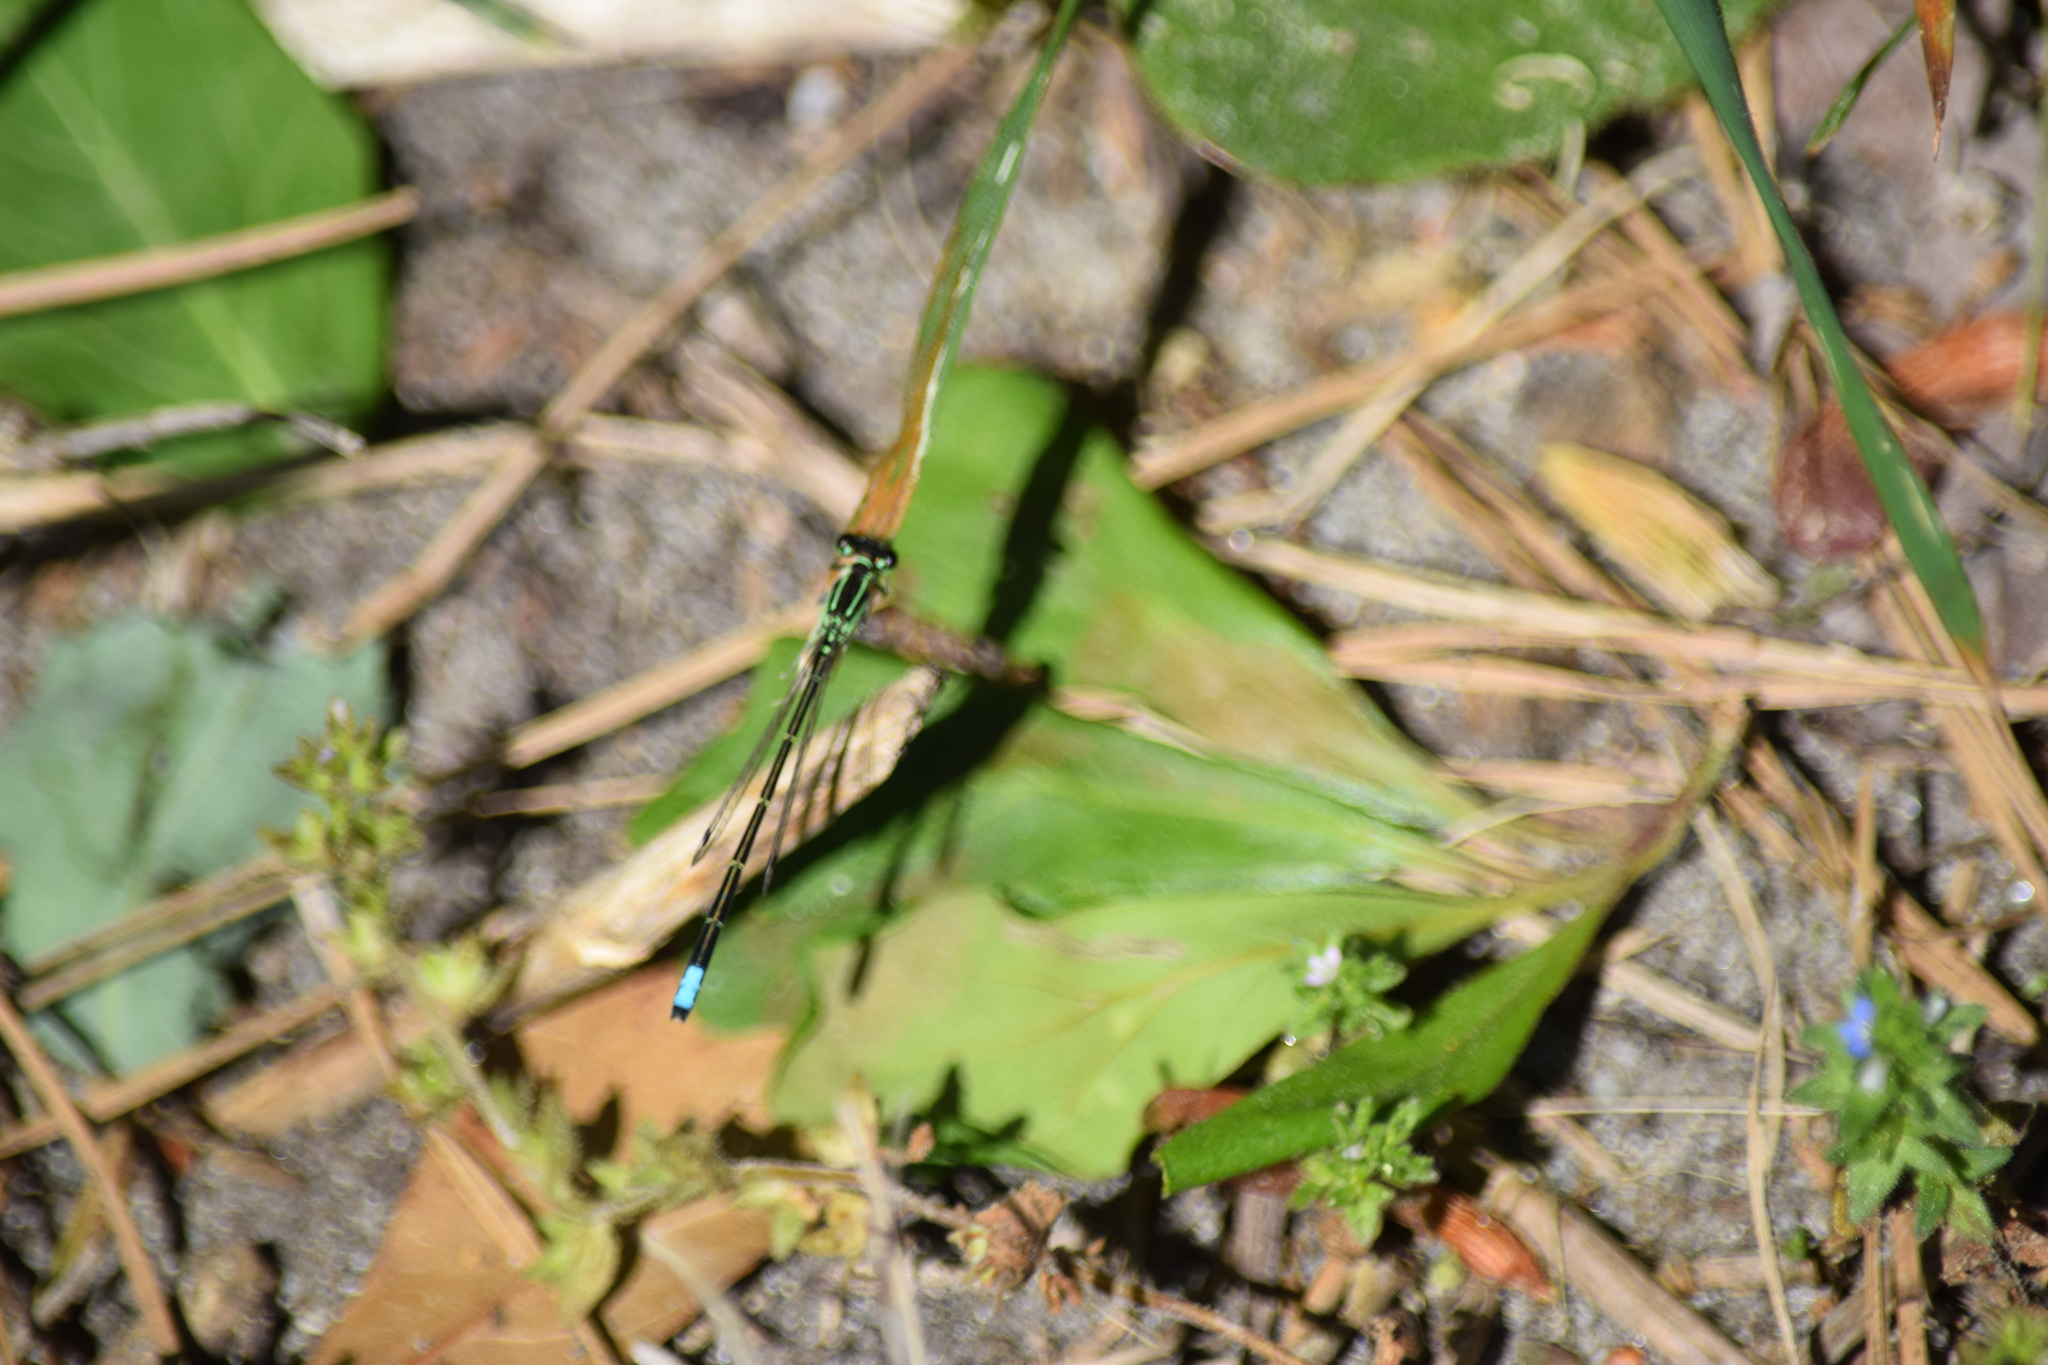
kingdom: Animalia
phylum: Arthropoda
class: Insecta
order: Odonata
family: Coenagrionidae
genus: Ischnura
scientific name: Ischnura verticalis
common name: Eastern forktail
